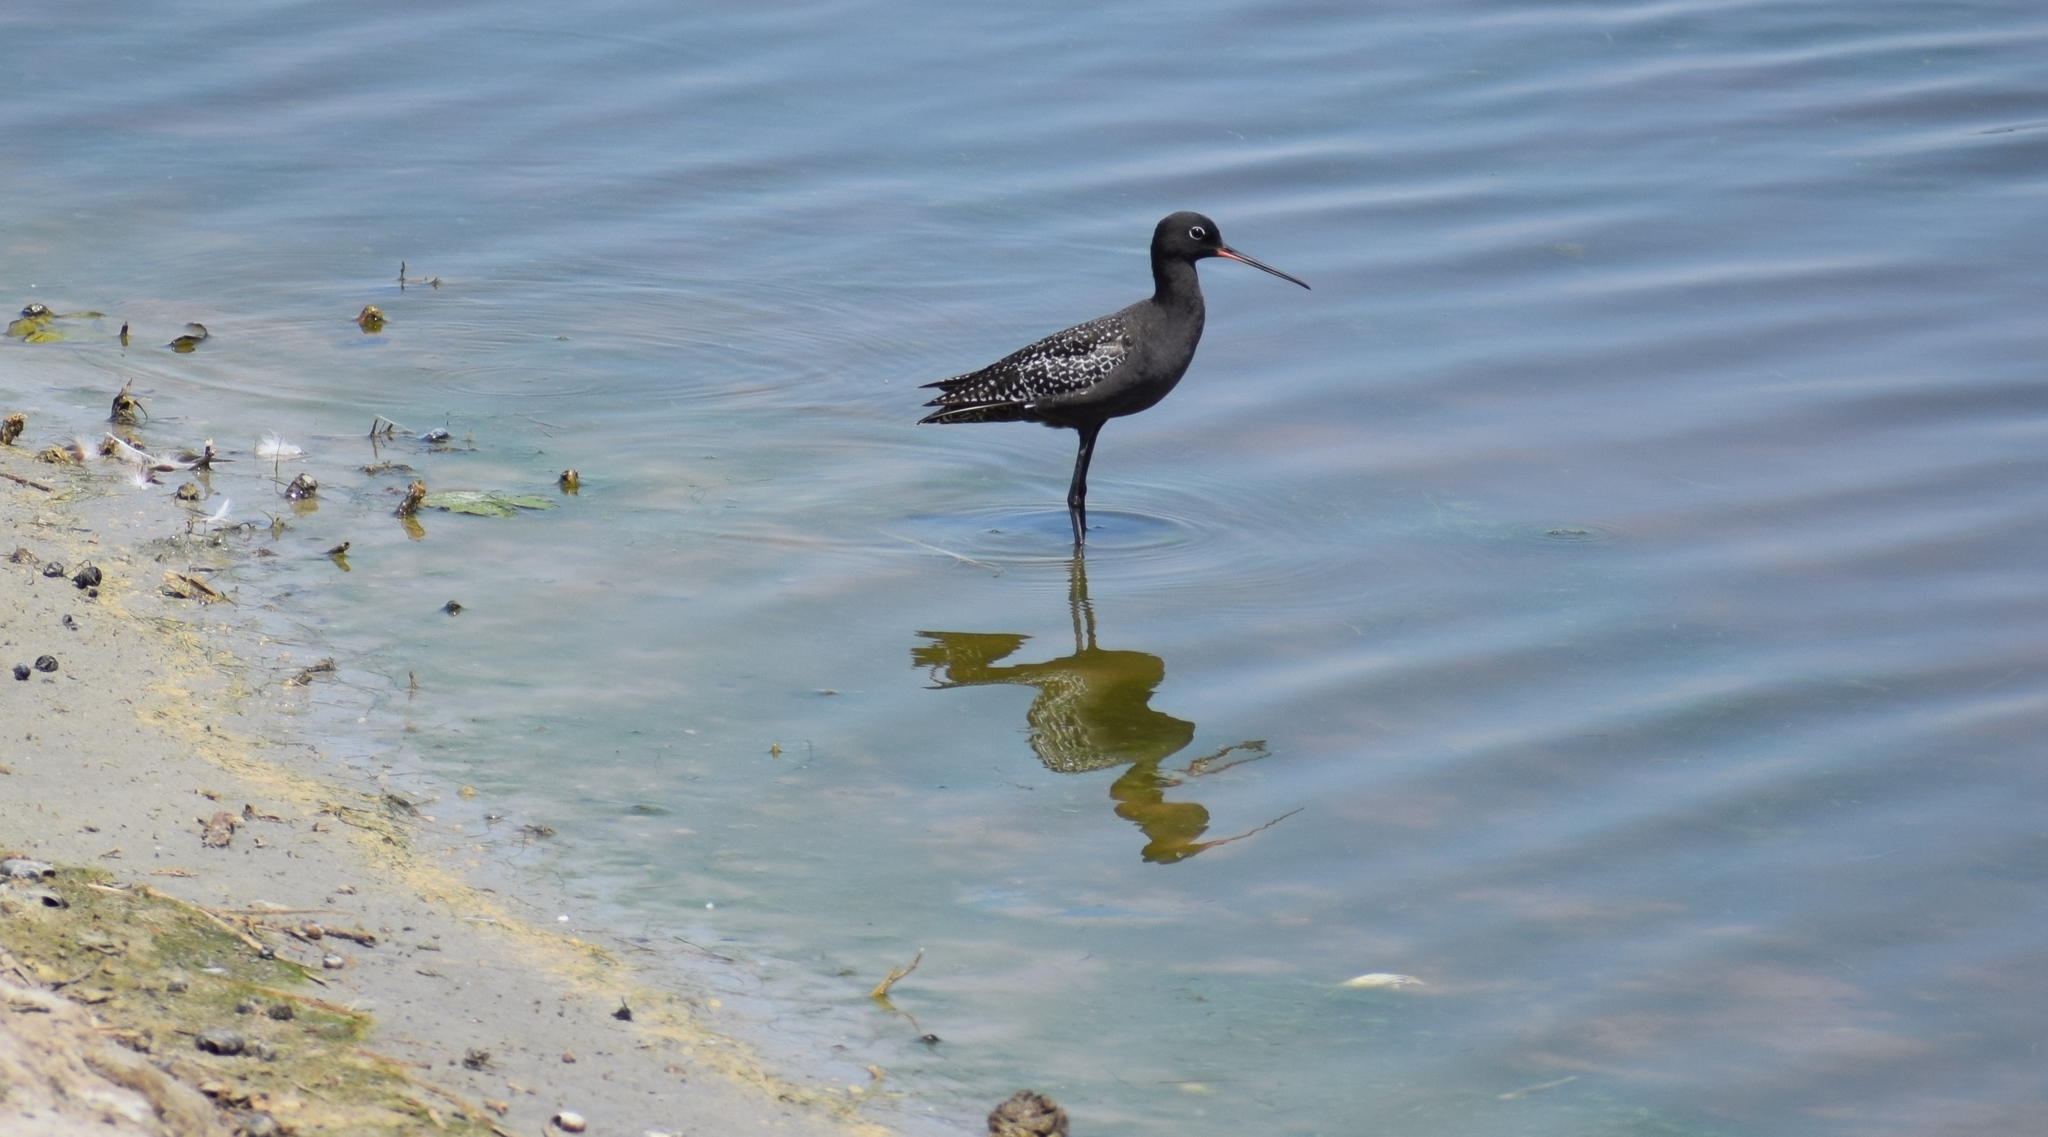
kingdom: Animalia
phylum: Chordata
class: Aves
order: Charadriiformes
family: Scolopacidae
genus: Tringa
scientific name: Tringa erythropus
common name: Spotted redshank
